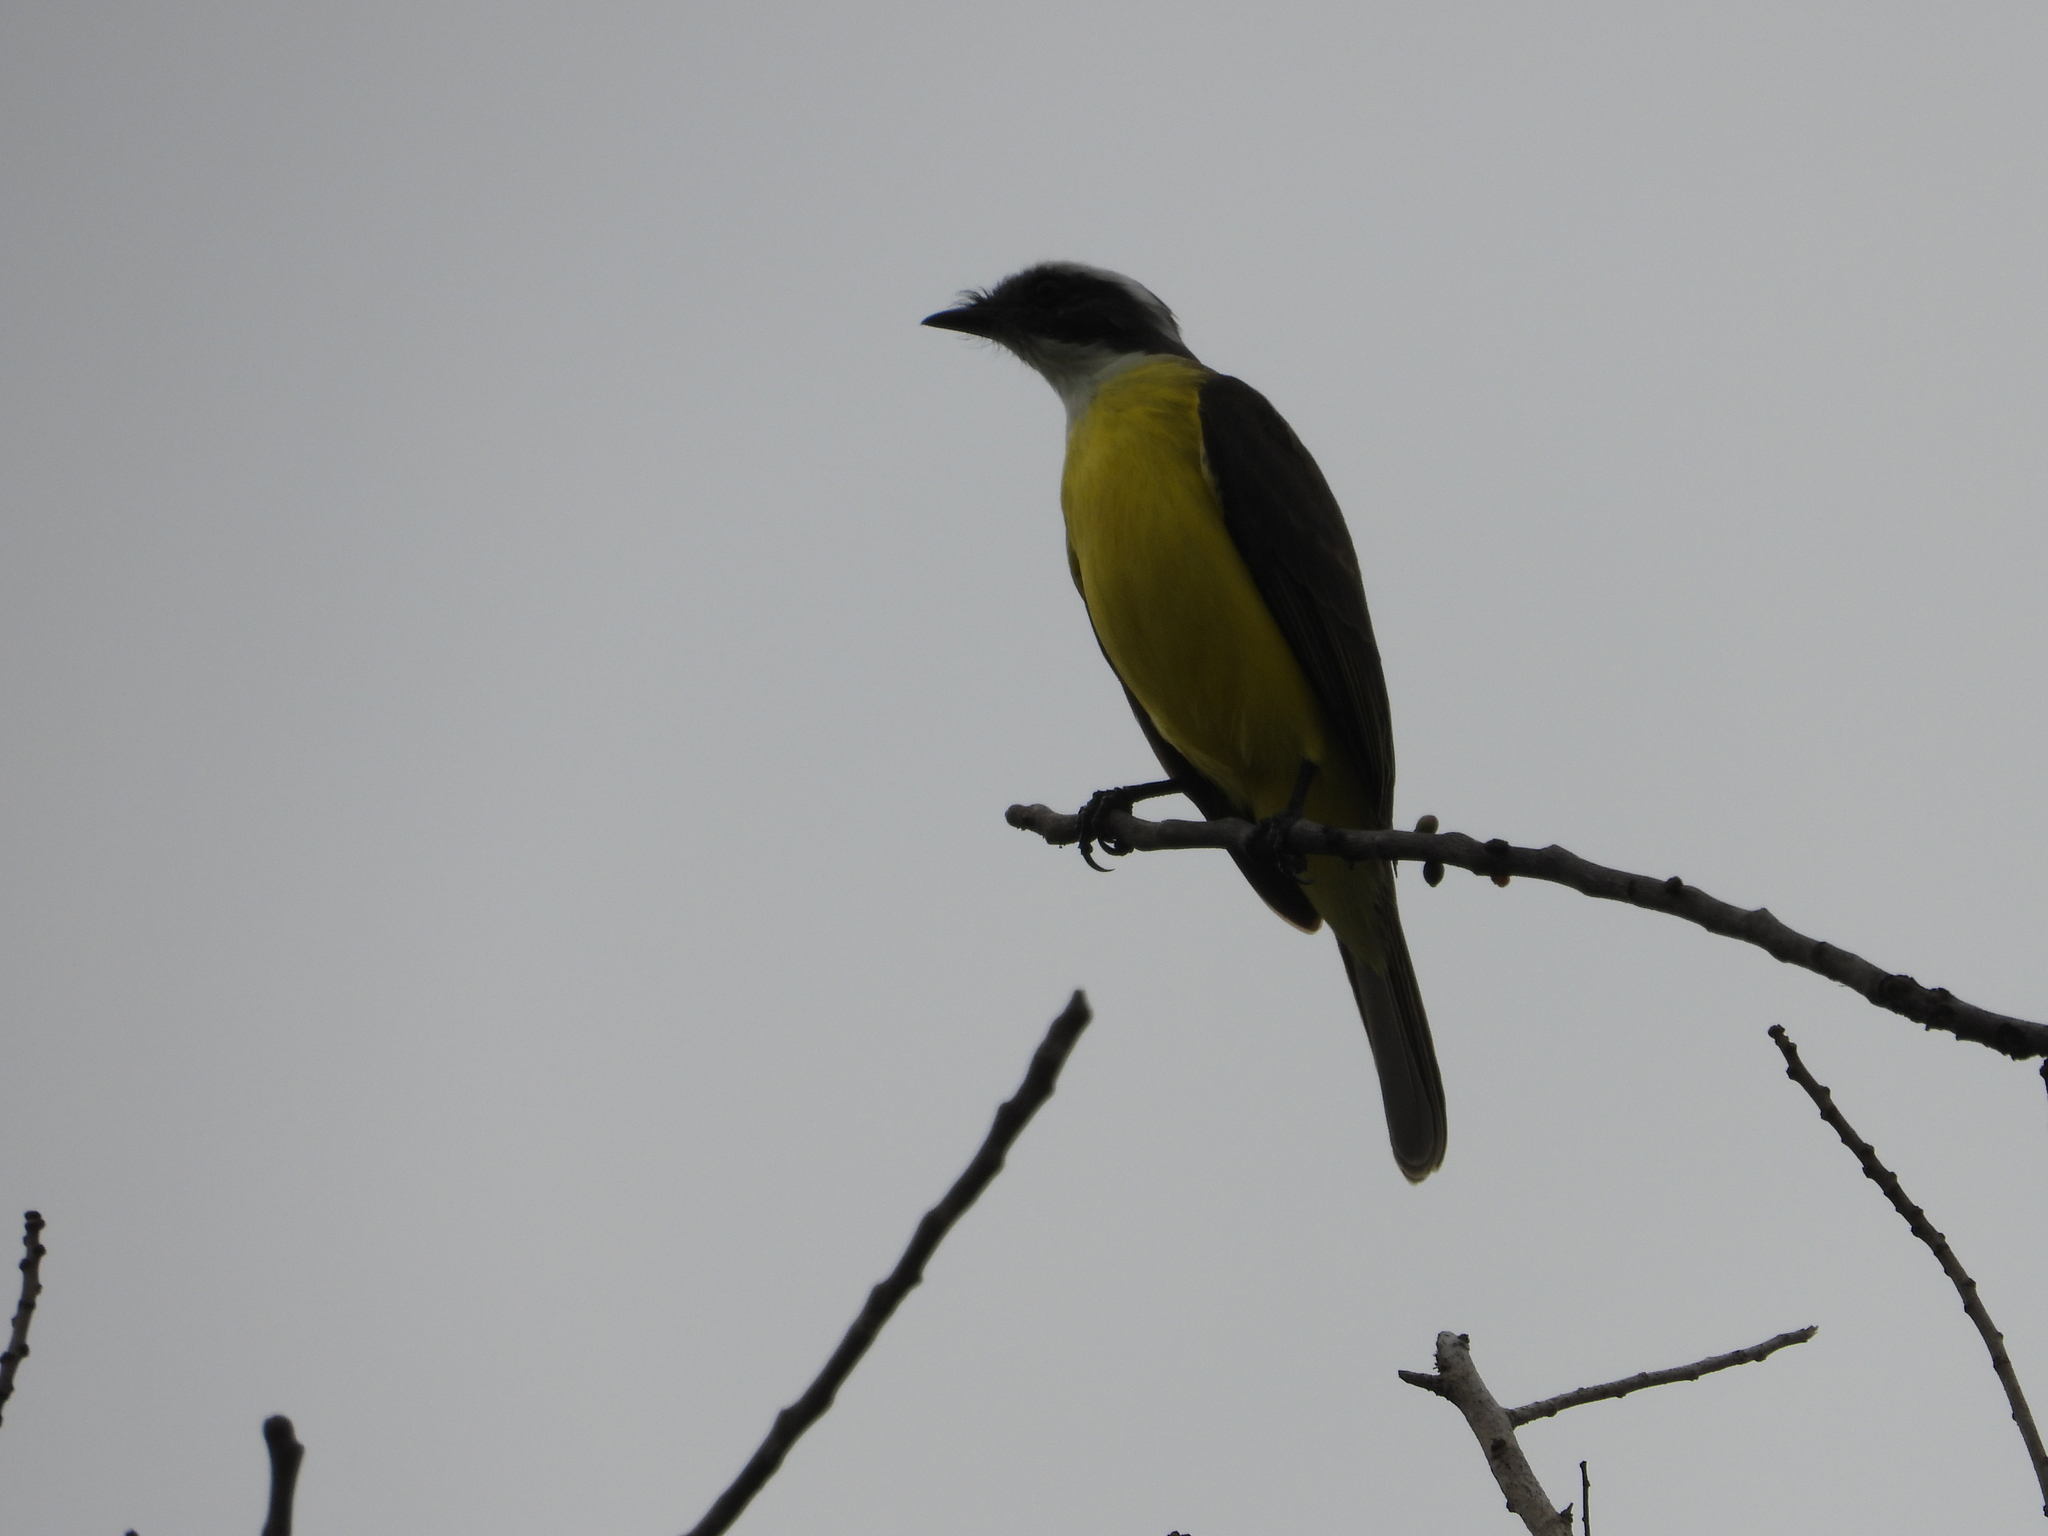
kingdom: Animalia
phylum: Chordata
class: Aves
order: Passeriformes
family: Tyrannidae
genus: Myiozetetes
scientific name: Myiozetetes similis
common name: Social flycatcher
